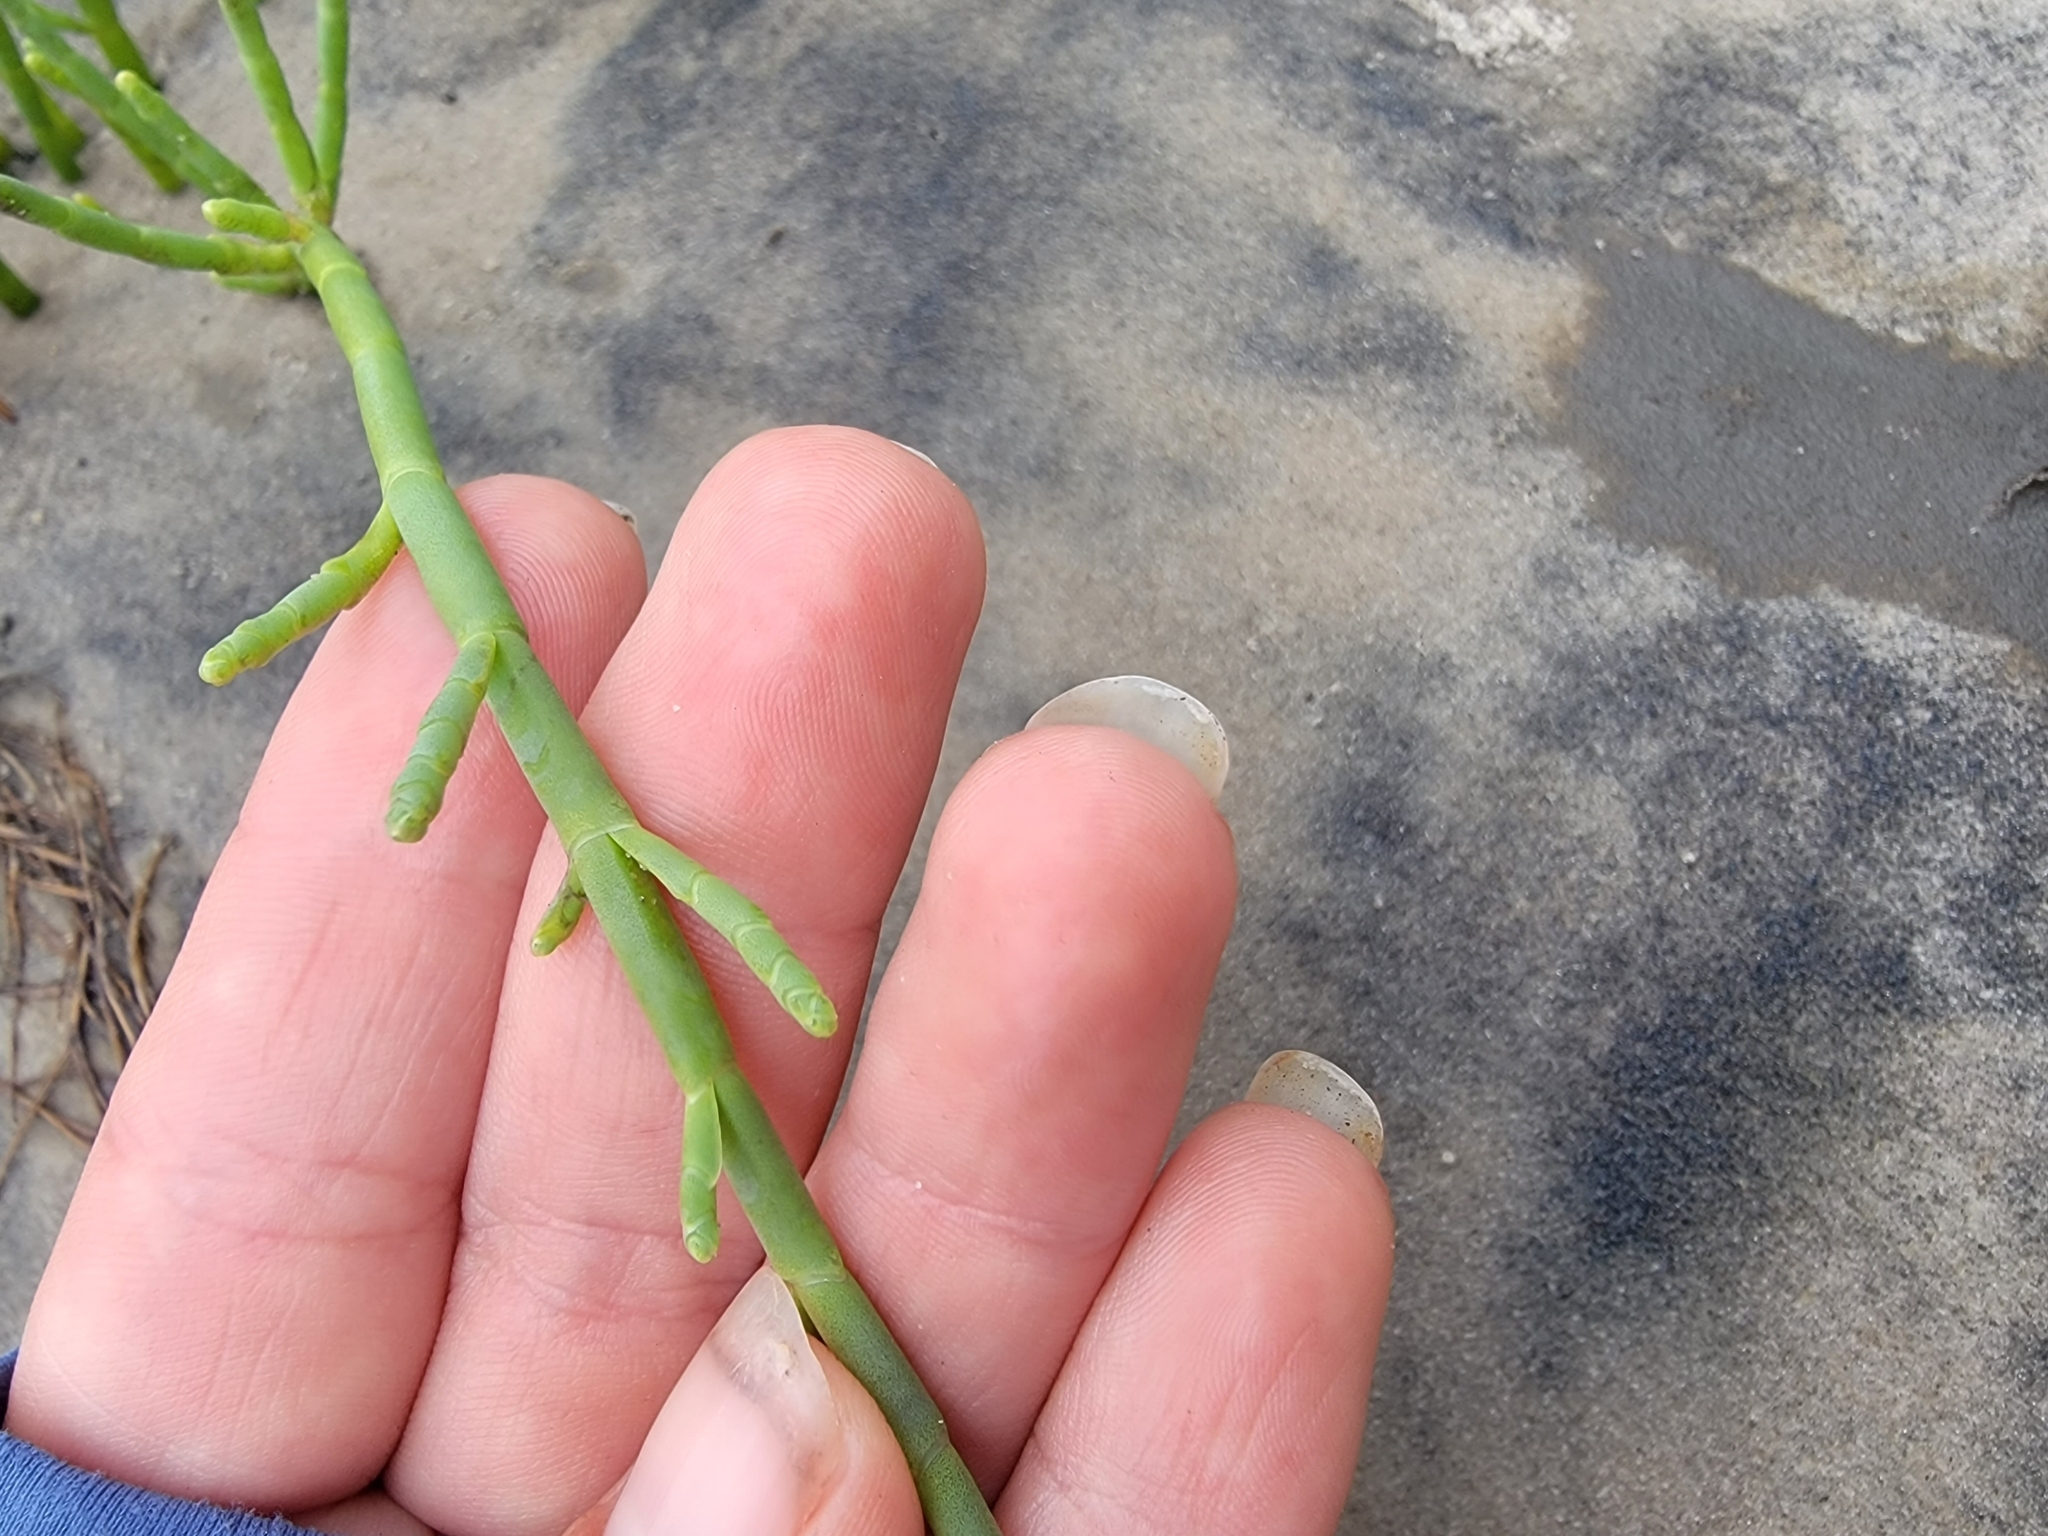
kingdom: Plantae
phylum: Tracheophyta
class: Magnoliopsida
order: Caryophyllales
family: Amaranthaceae
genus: Salicornia
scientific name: Salicornia ambigua
